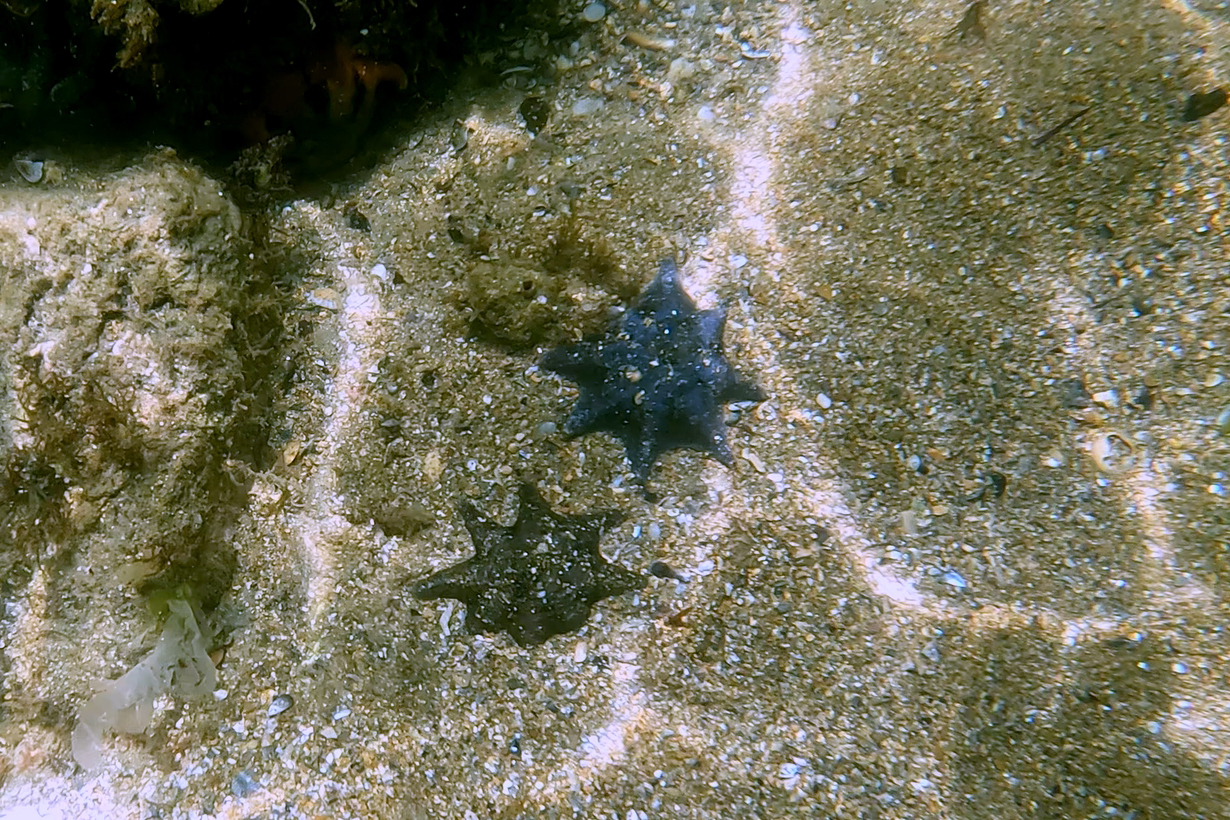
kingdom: Animalia
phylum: Echinodermata
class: Asteroidea
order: Valvatida
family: Asterinidae
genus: Meridiastra
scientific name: Meridiastra calcar
